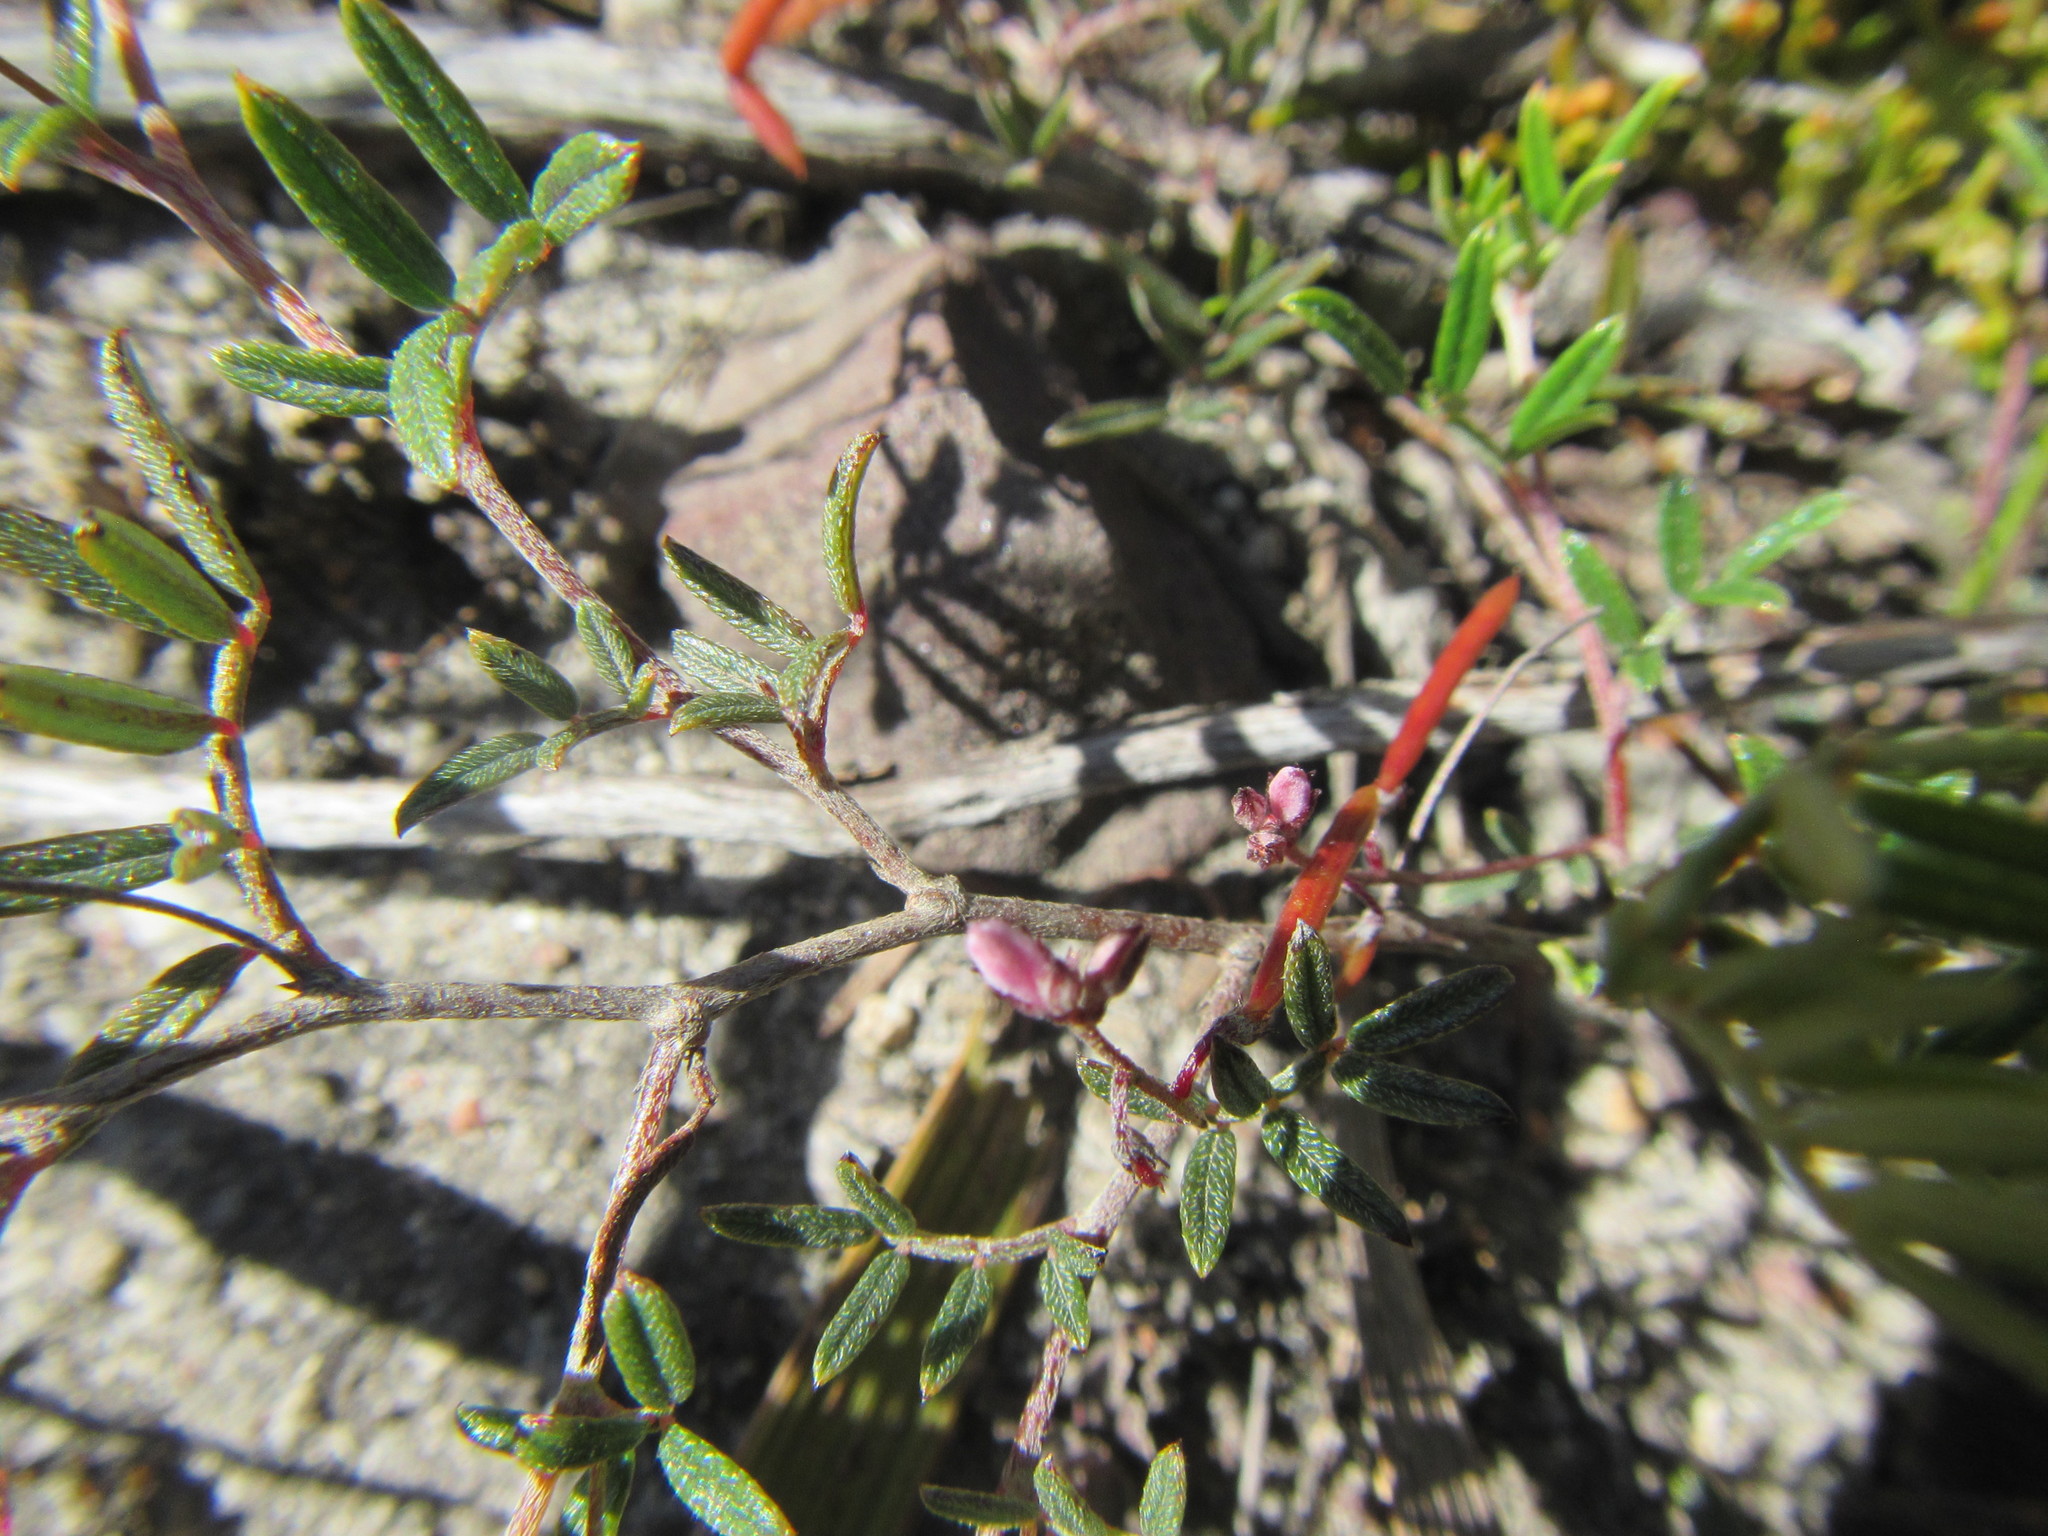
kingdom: Plantae
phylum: Tracheophyta
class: Magnoliopsida
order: Fabales
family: Fabaceae
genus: Indigofera
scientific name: Indigofera angustifolia
